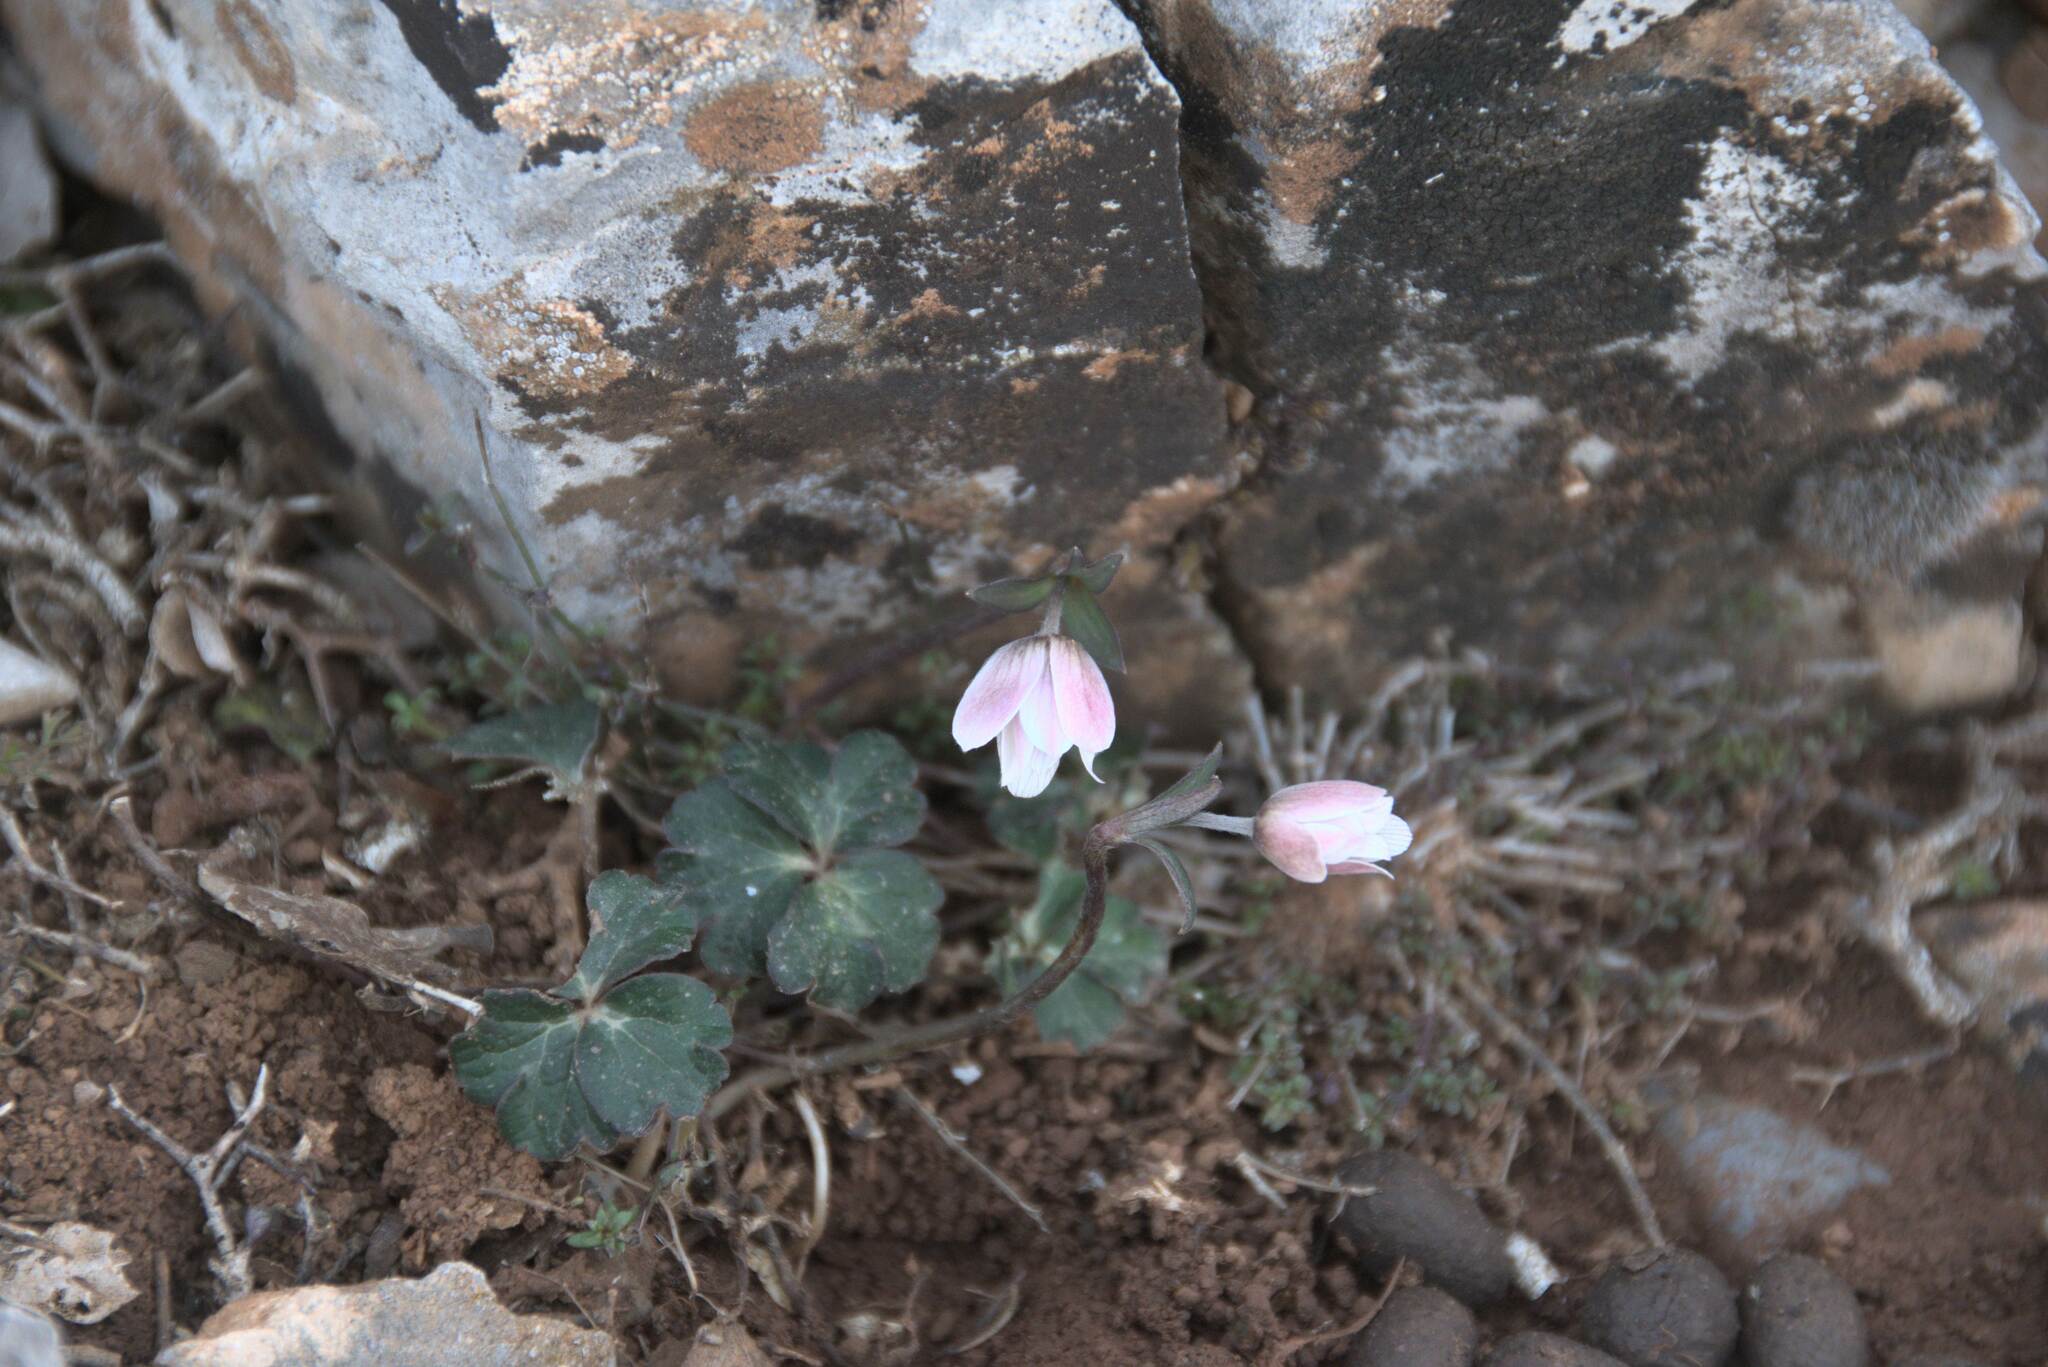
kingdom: Plantae
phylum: Tracheophyta
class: Magnoliopsida
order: Ranunculales
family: Ranunculaceae
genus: Anemone
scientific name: Anemone hortensis
